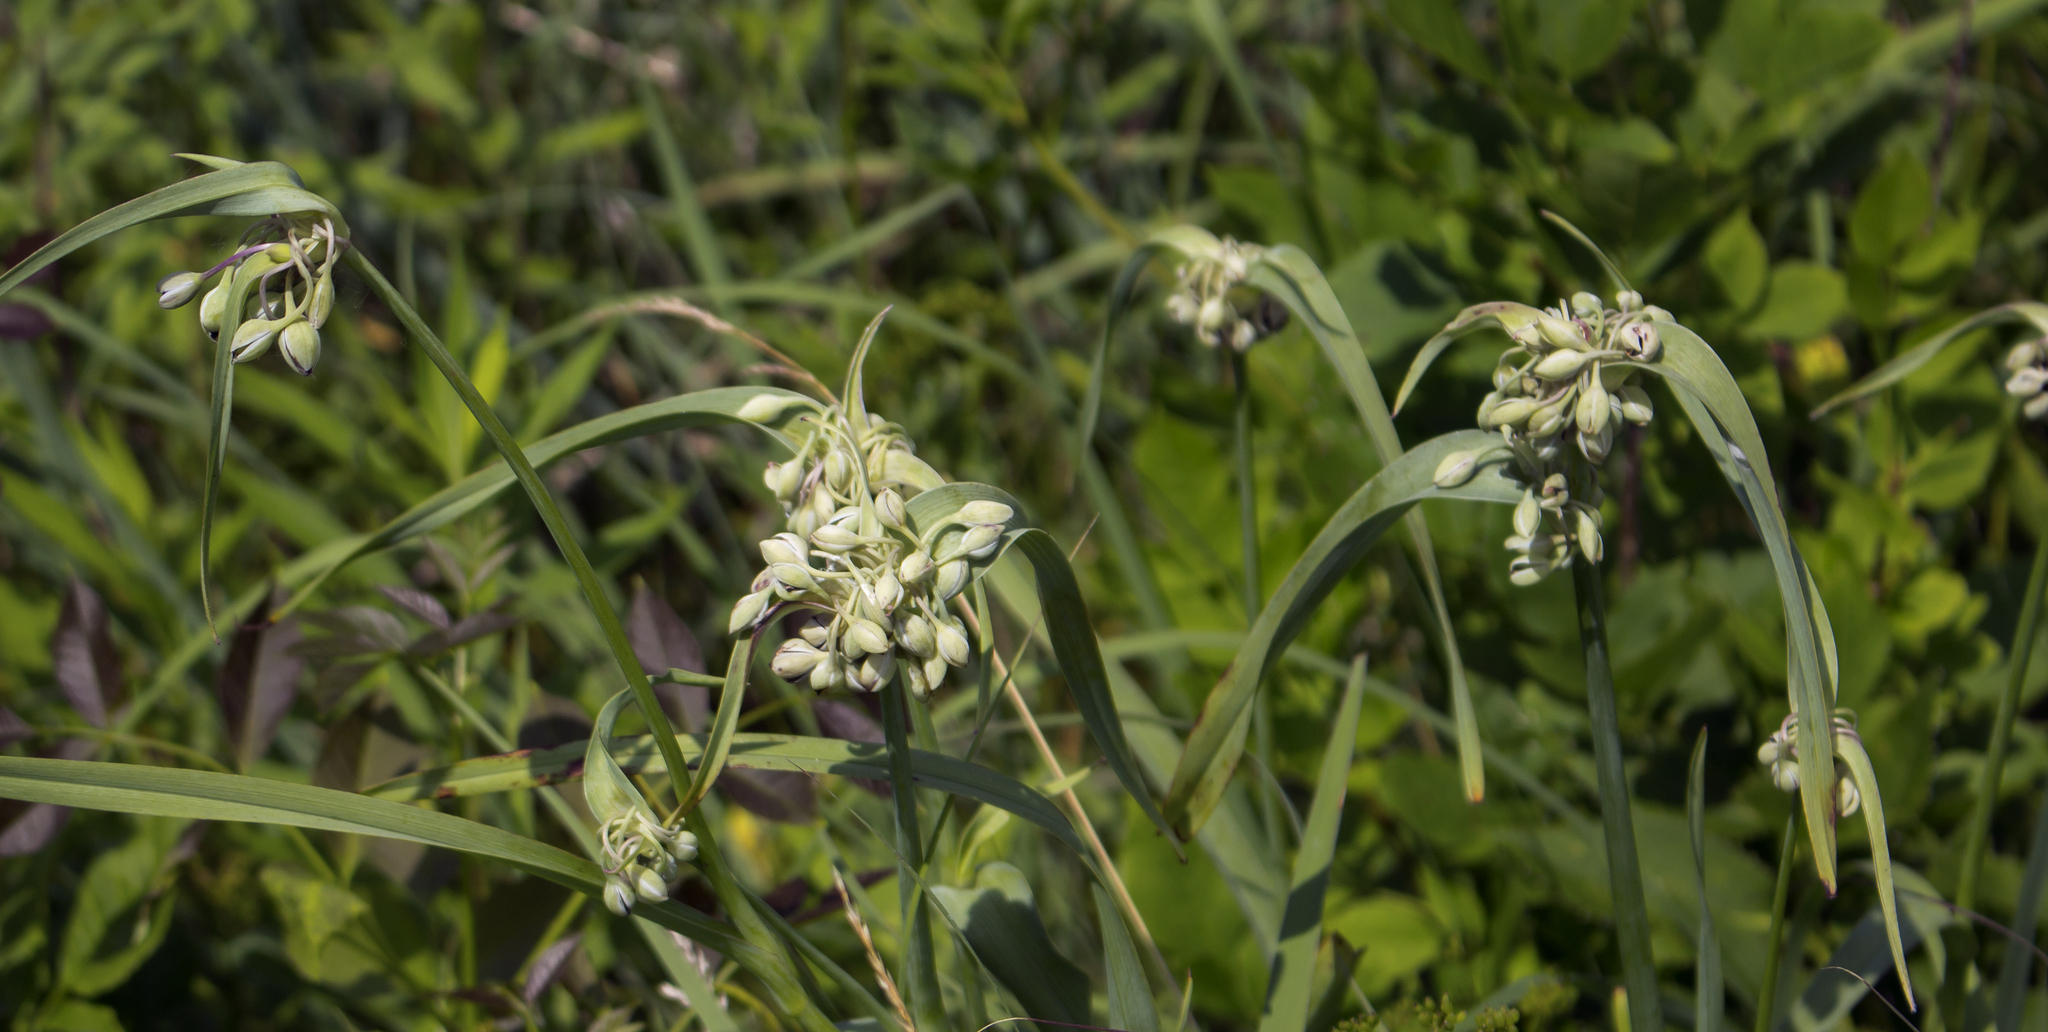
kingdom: Plantae
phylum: Tracheophyta
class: Liliopsida
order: Commelinales
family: Commelinaceae
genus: Tradescantia
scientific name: Tradescantia ohiensis
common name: Ohio spiderwort
